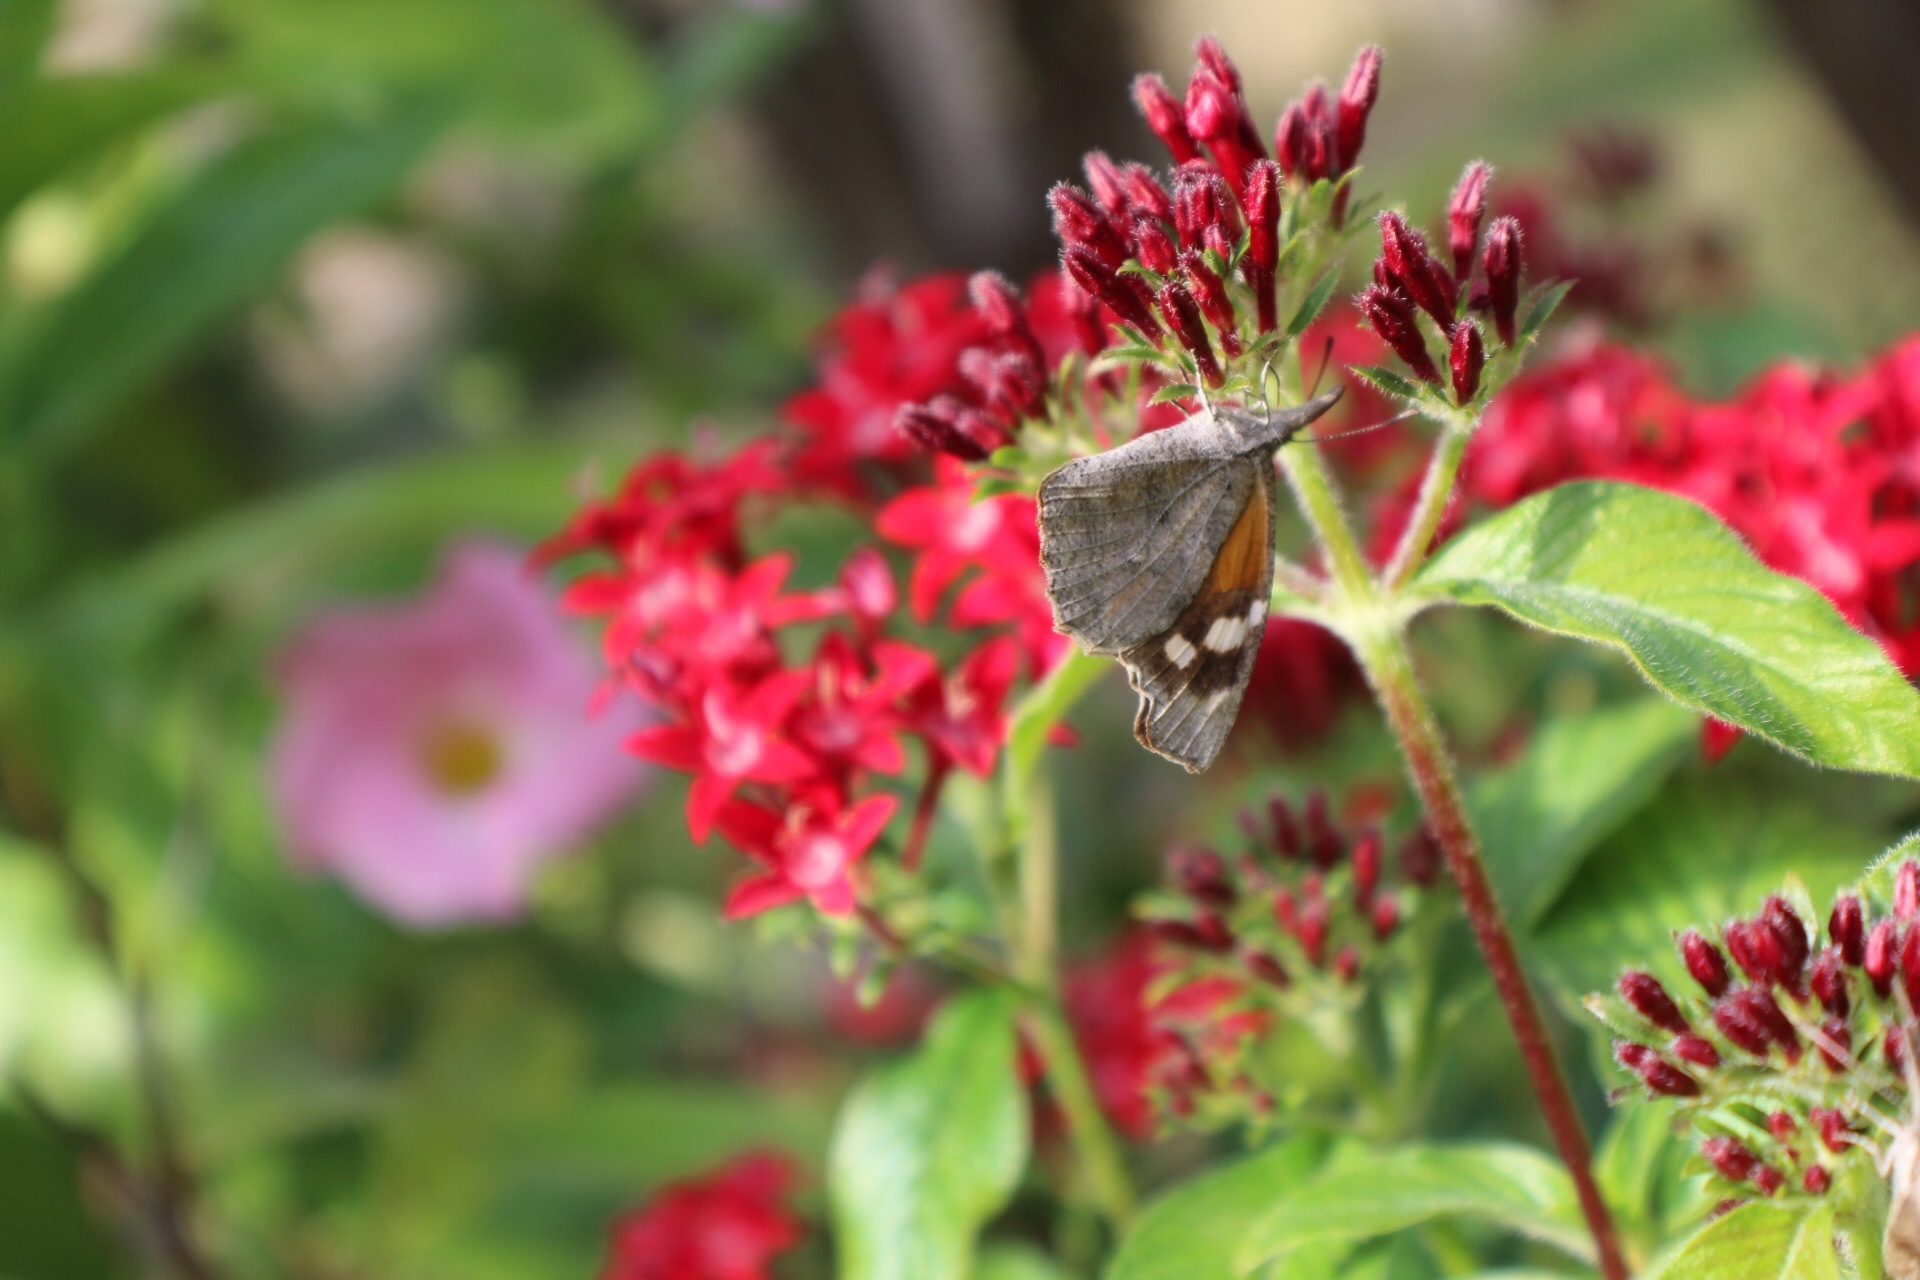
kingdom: Animalia
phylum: Arthropoda
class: Insecta
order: Lepidoptera
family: Nymphalidae
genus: Libytheana
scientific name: Libytheana carinenta
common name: American snout
